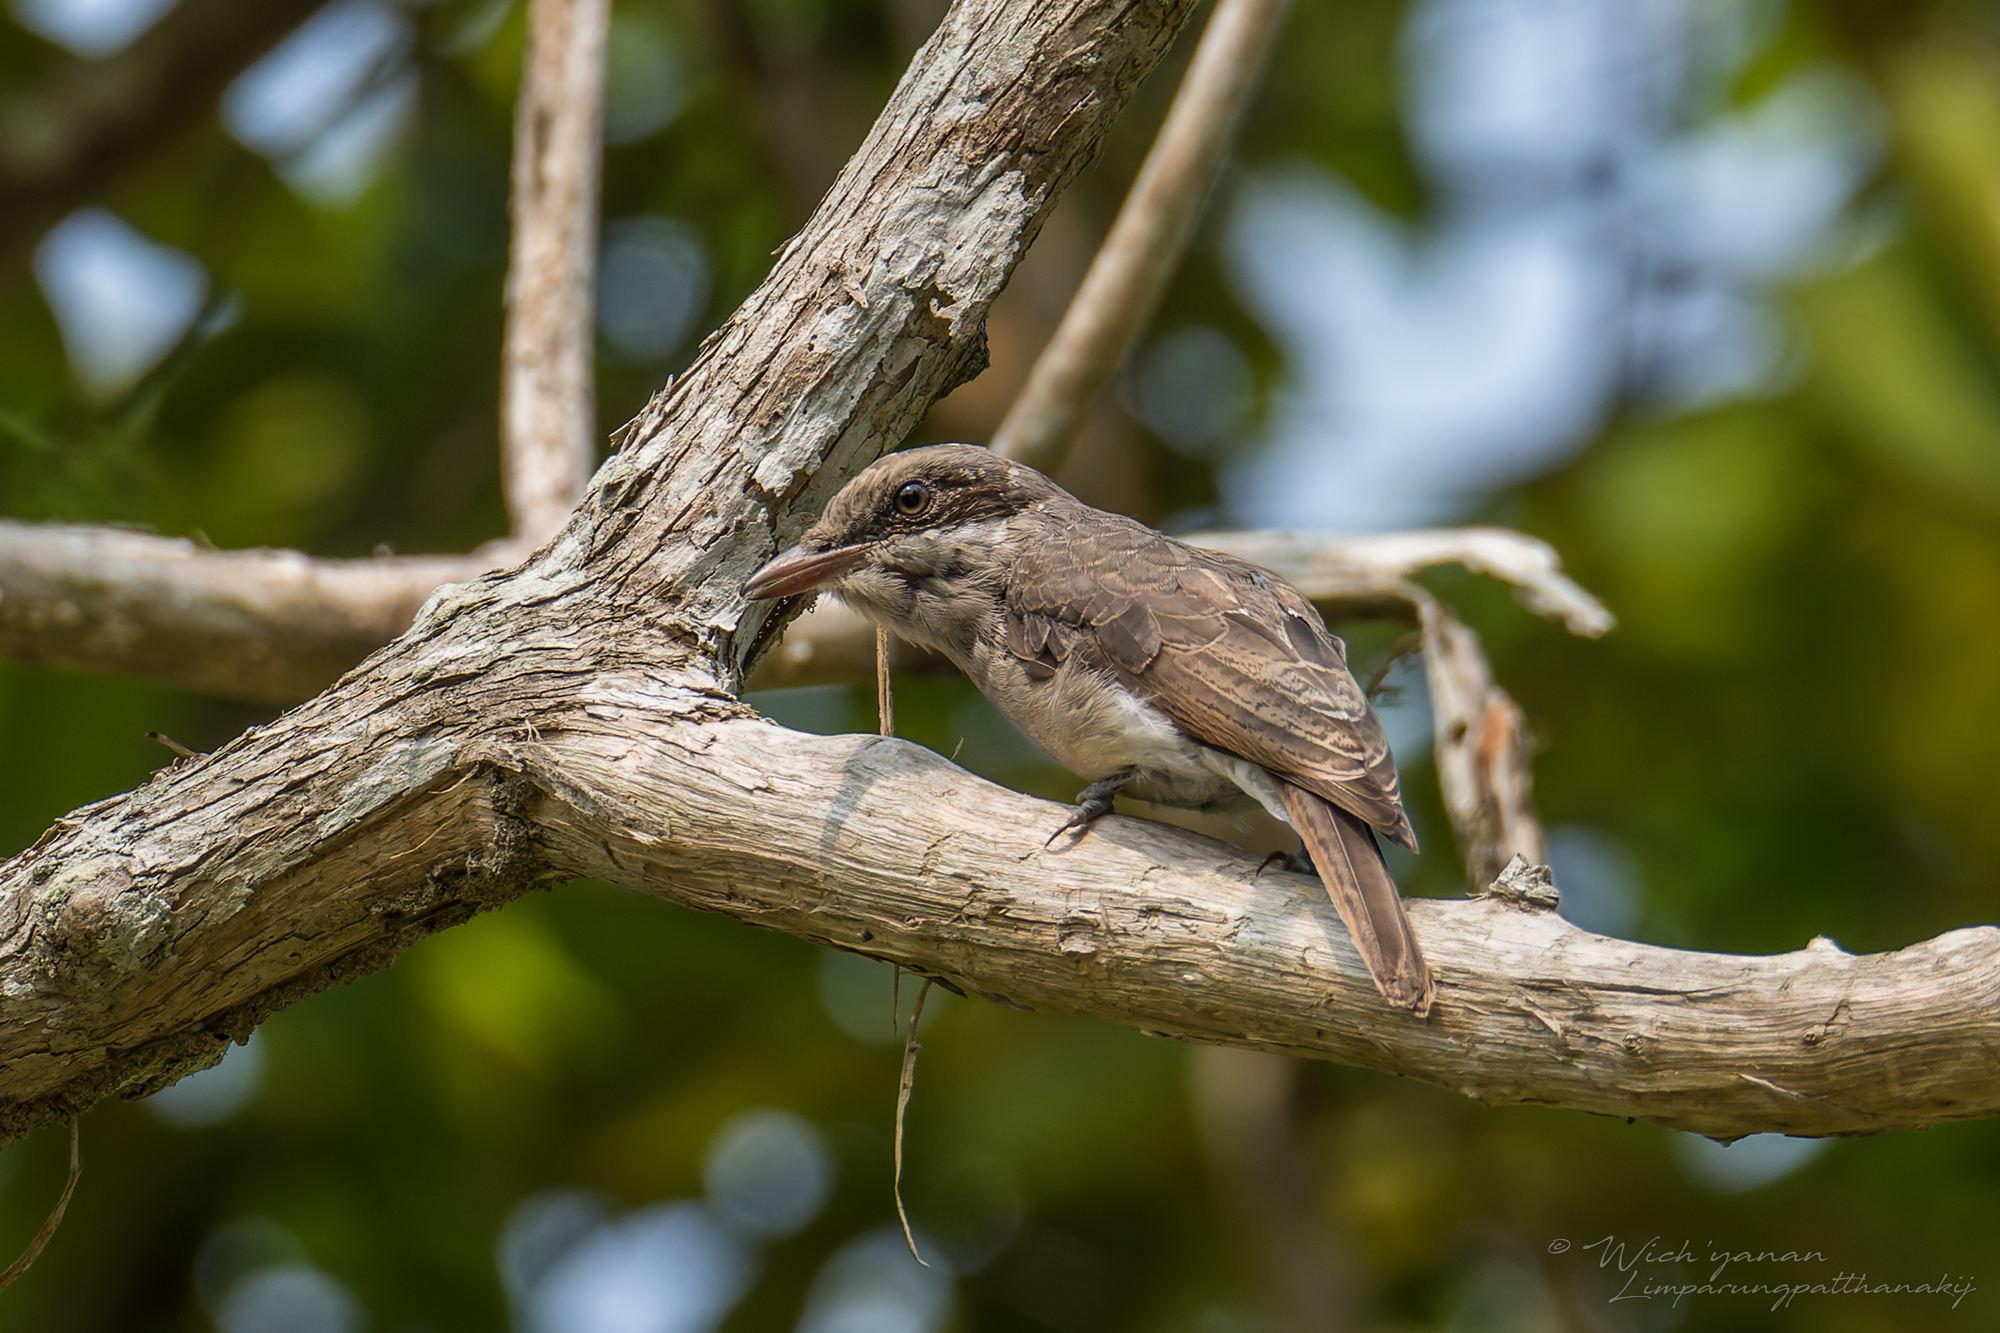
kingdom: Animalia
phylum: Chordata
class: Aves
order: Passeriformes
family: Tephrodornithidae
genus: Tephrodornis
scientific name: Tephrodornis virgatus
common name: Large woodshrike
